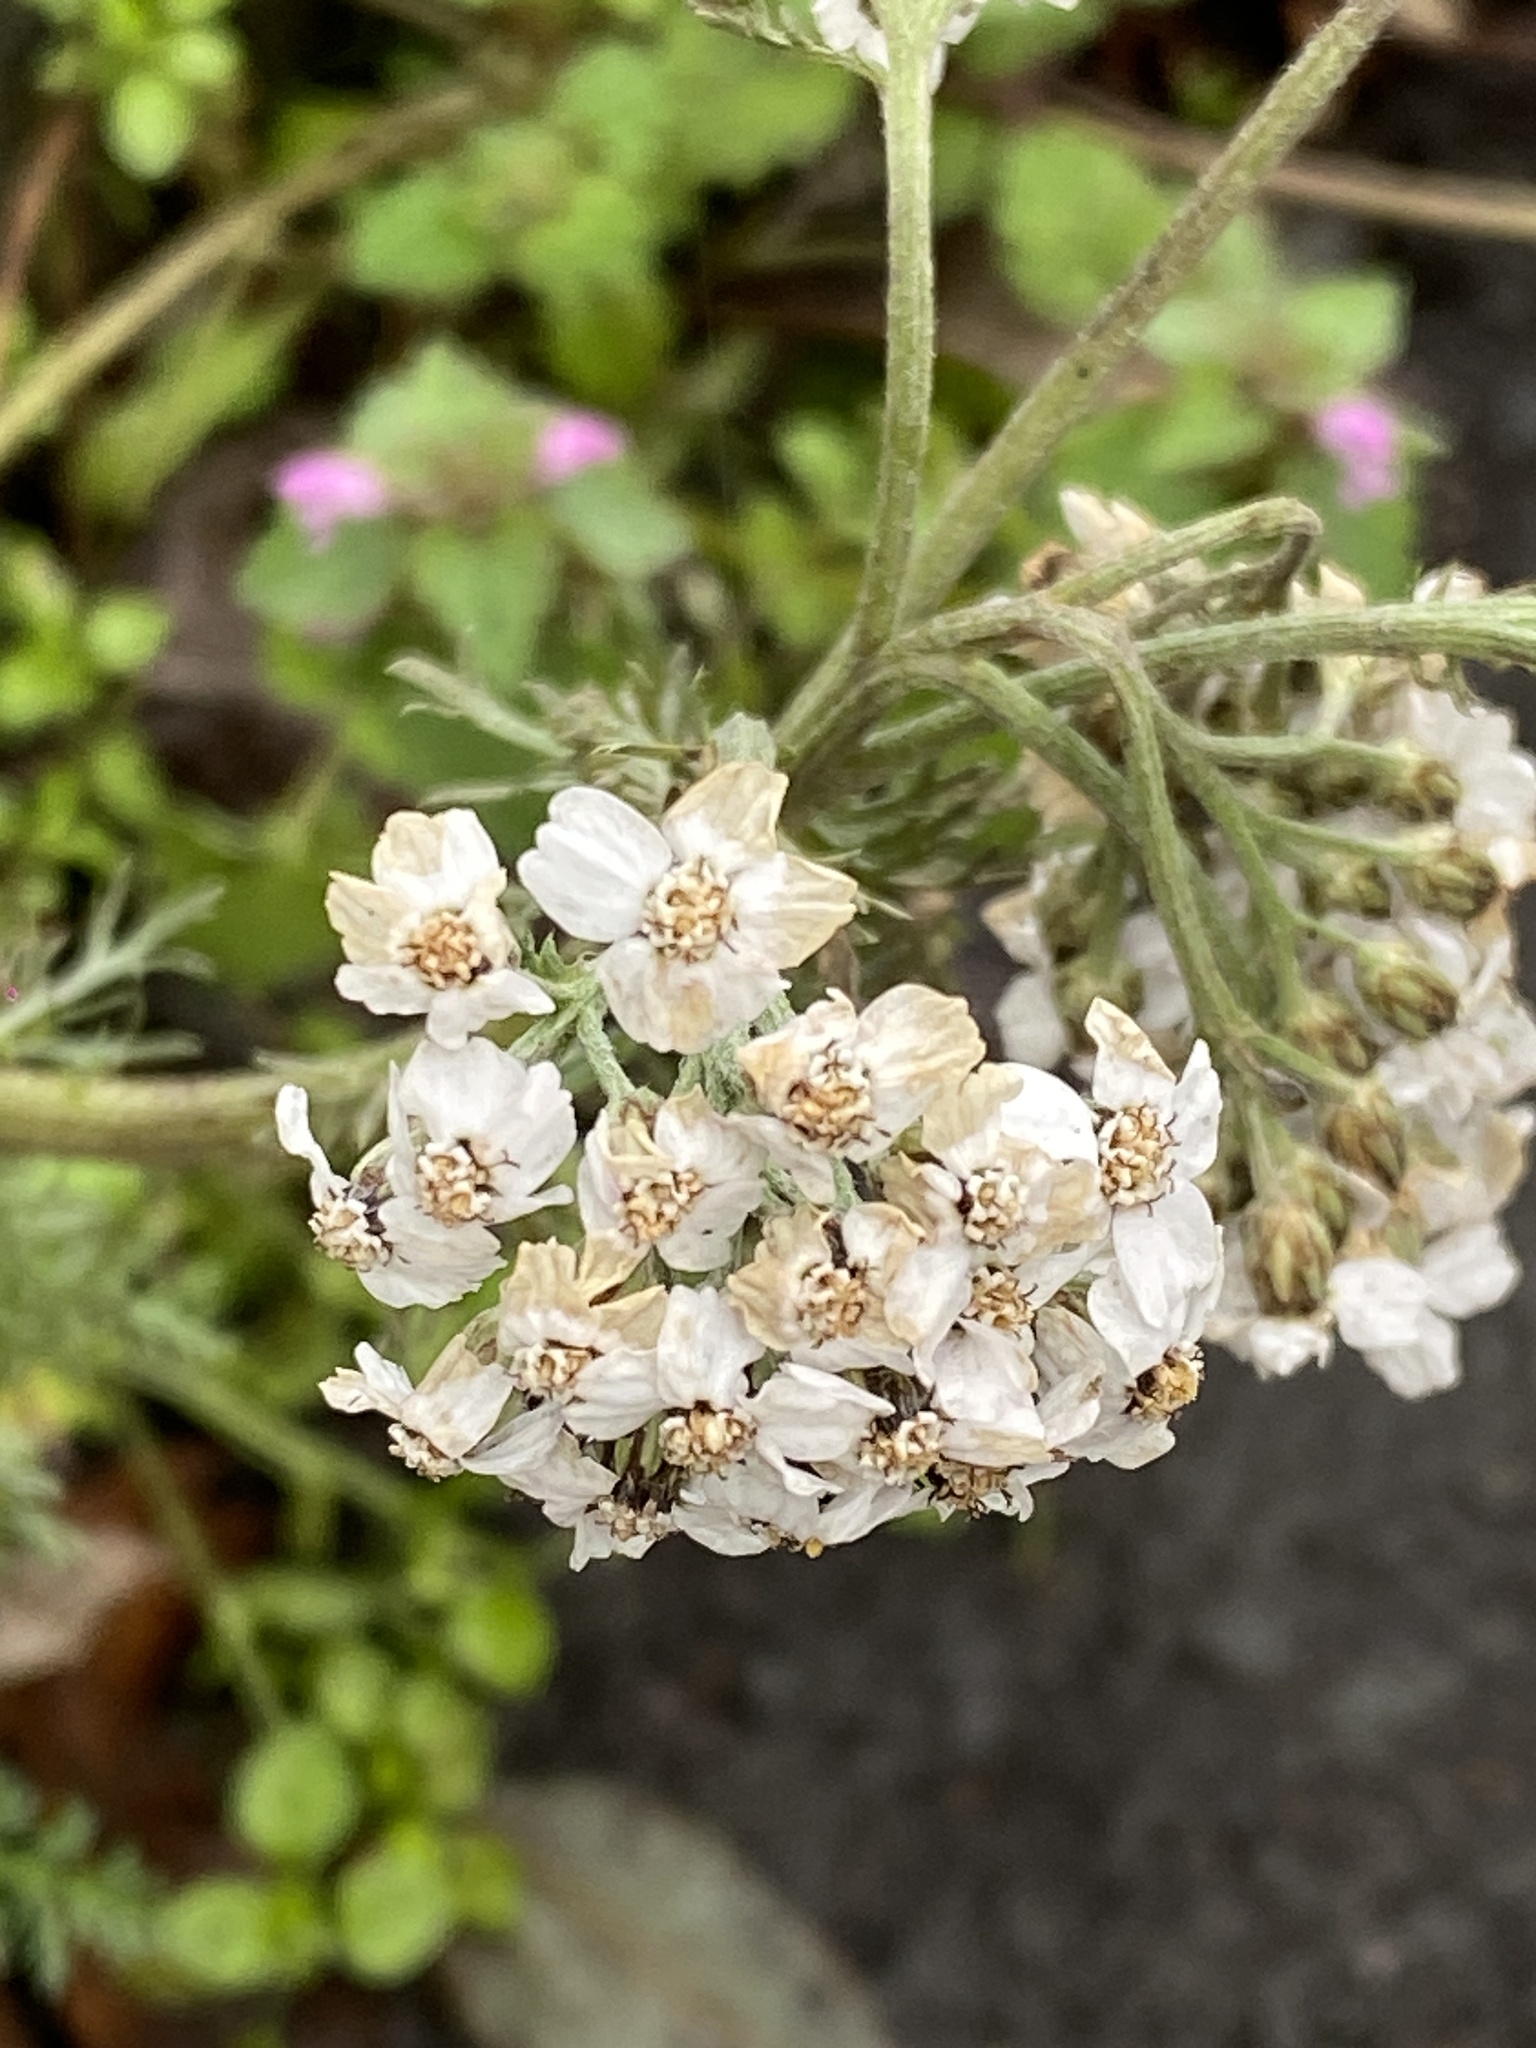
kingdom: Plantae
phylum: Tracheophyta
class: Magnoliopsida
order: Asterales
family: Asteraceae
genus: Achillea
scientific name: Achillea millefolium
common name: Yarrow
